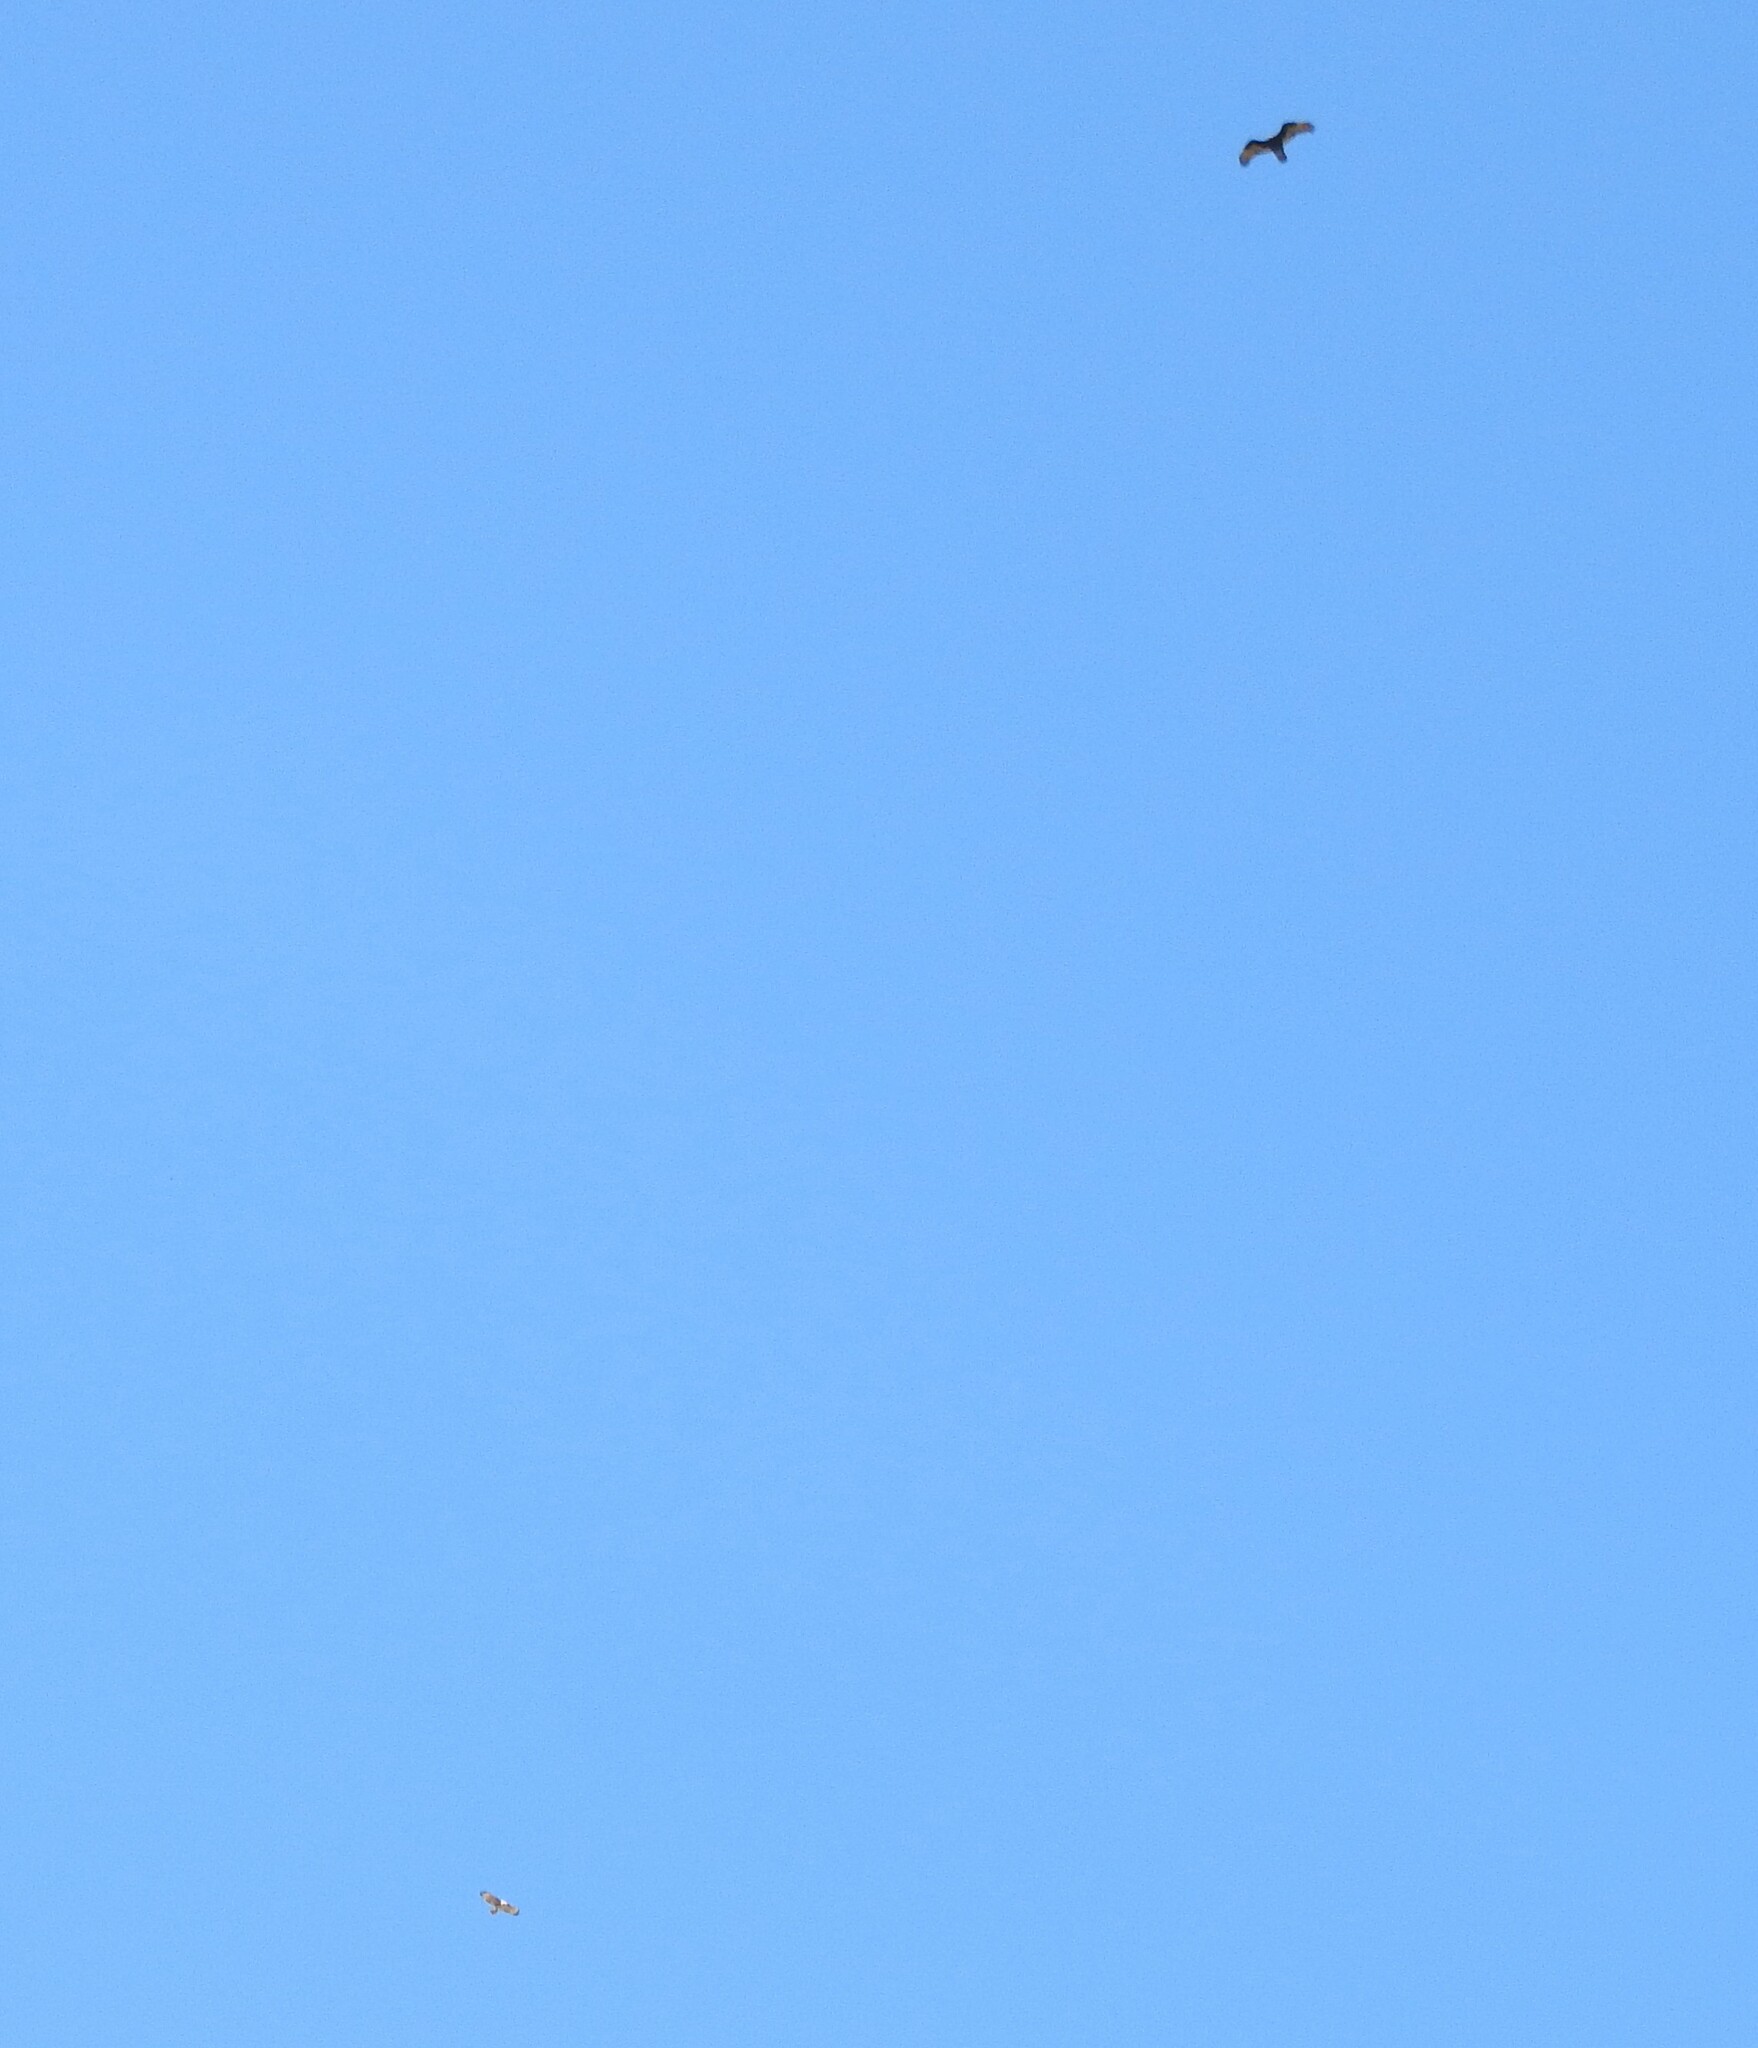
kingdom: Animalia
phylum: Chordata
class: Aves
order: Accipitriformes
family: Cathartidae
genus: Cathartes
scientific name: Cathartes aura
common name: Turkey vulture
